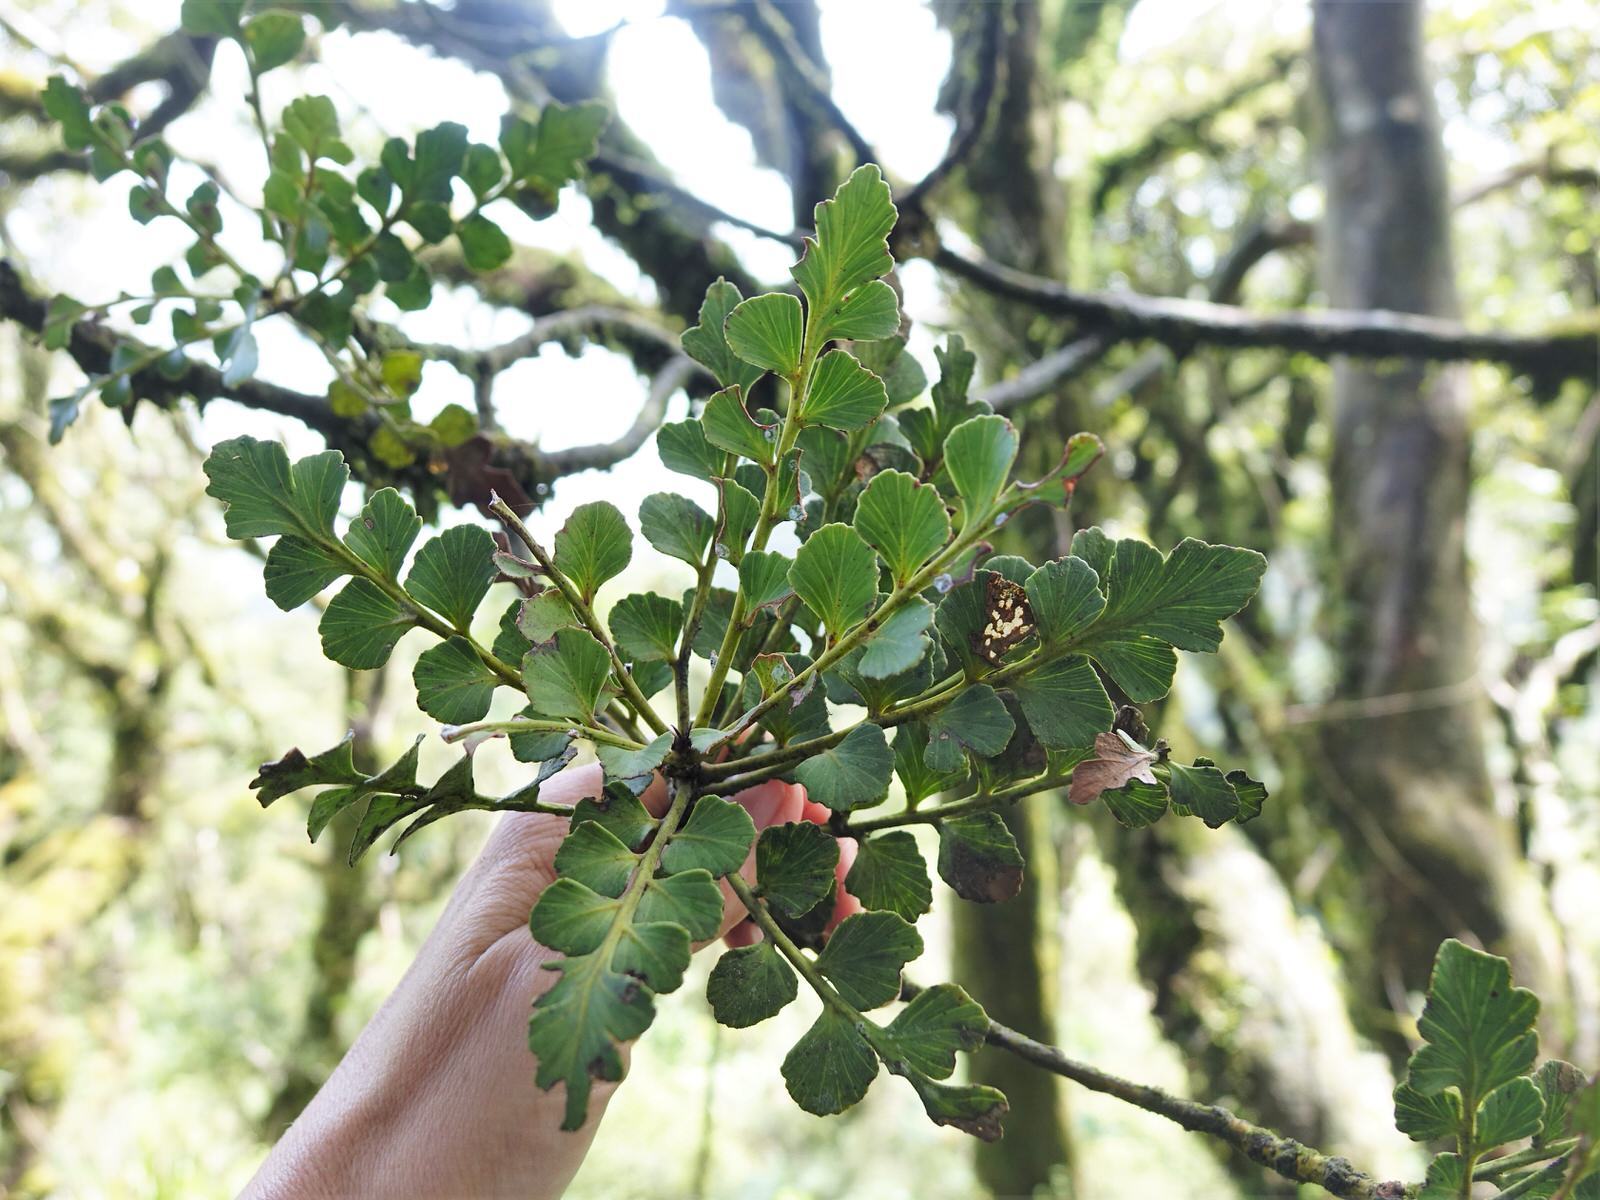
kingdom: Plantae
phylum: Tracheophyta
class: Pinopsida
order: Pinales
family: Phyllocladaceae
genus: Phyllocladus
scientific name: Phyllocladus toatoa
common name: Celery-top pine
